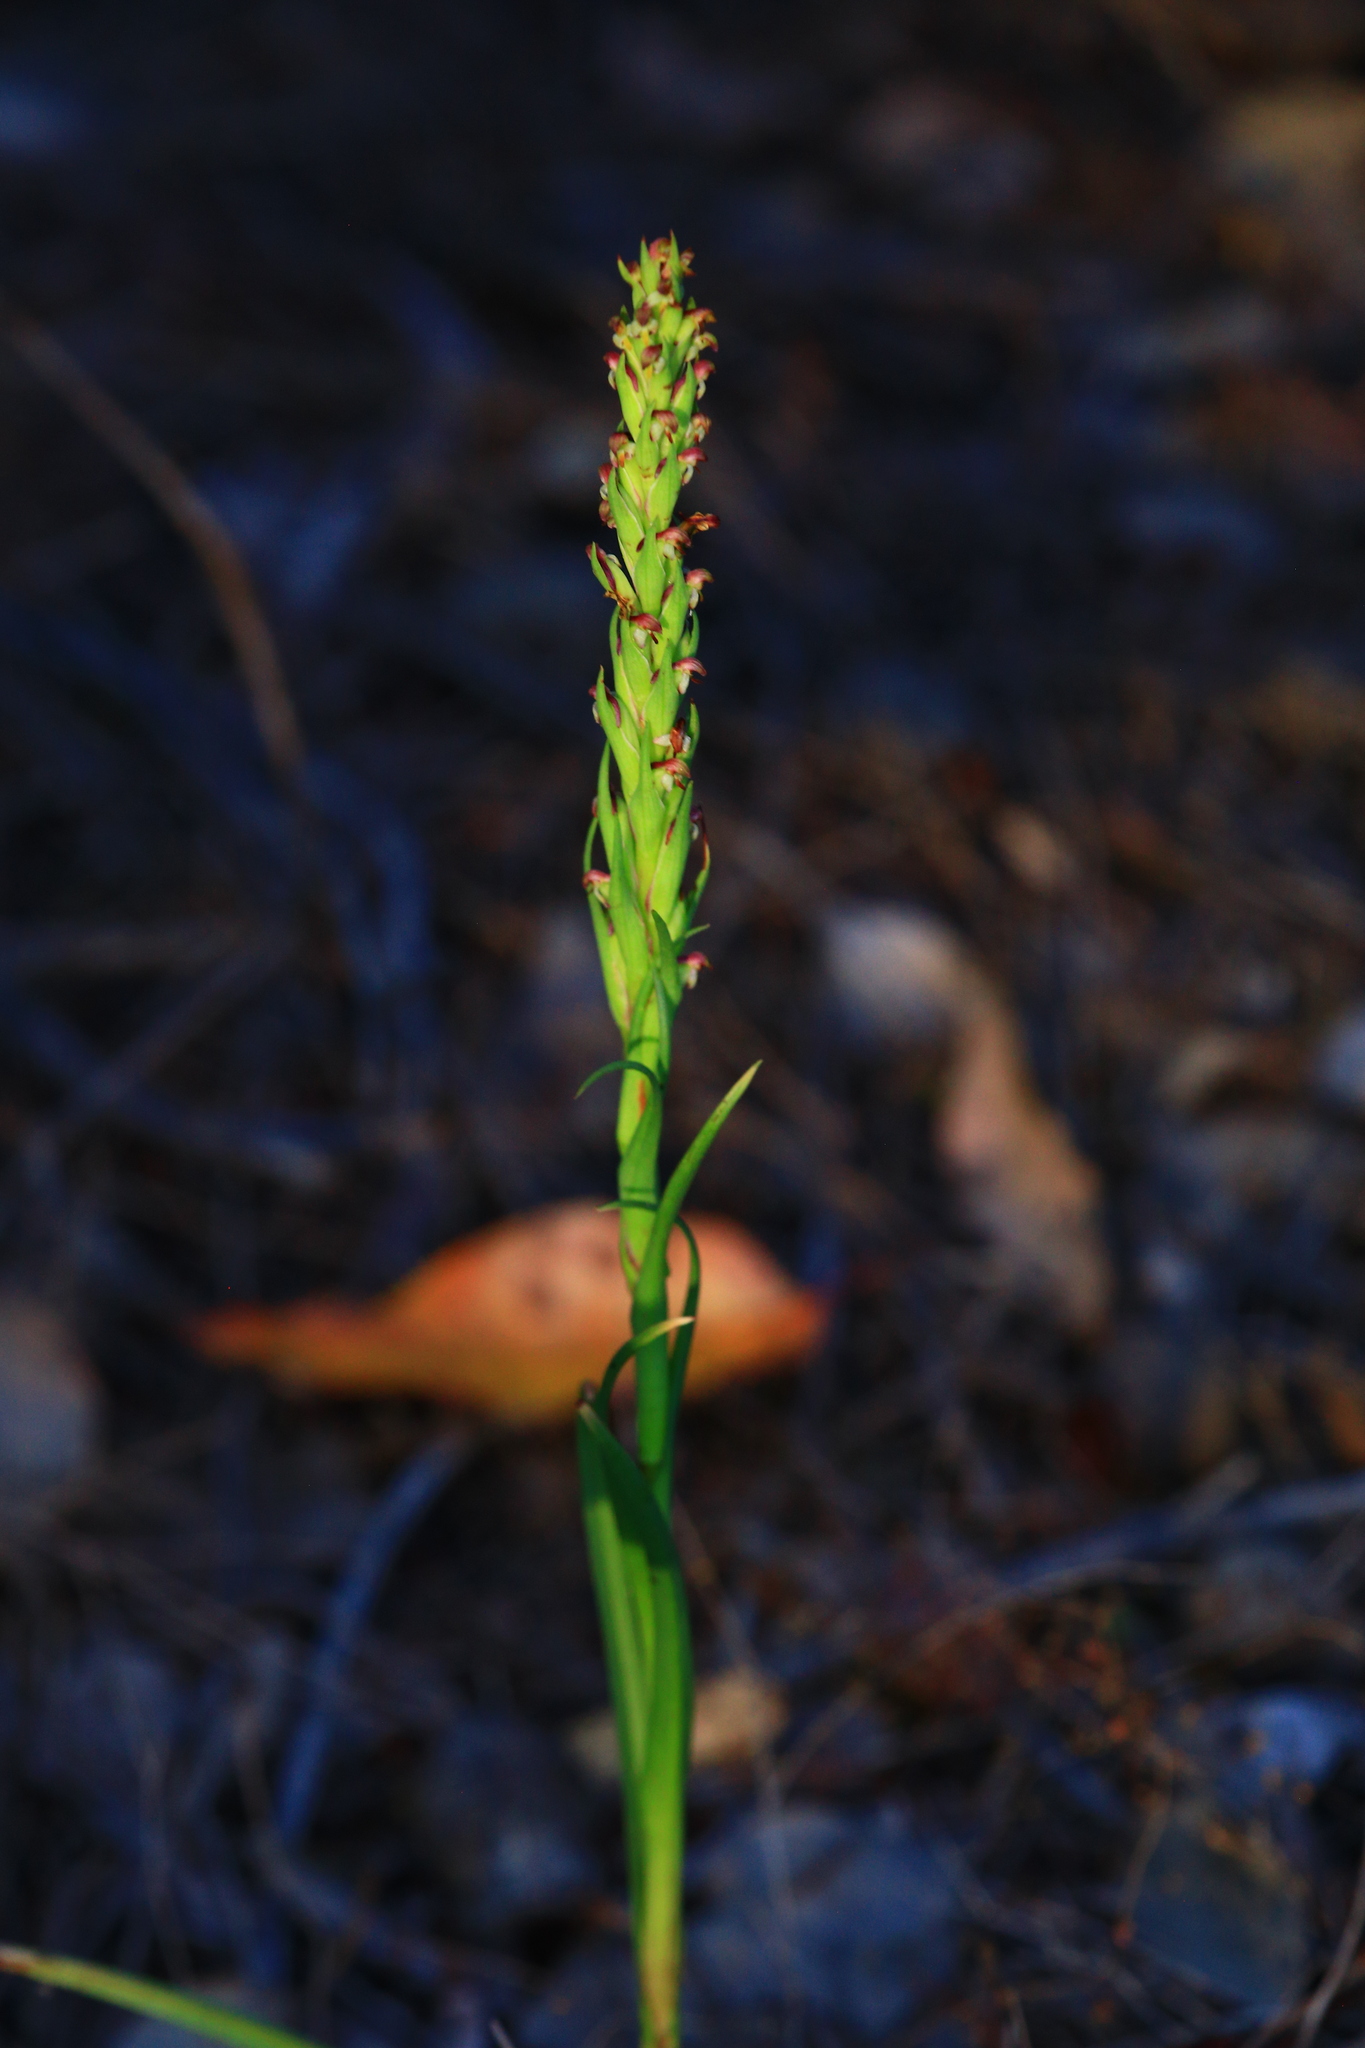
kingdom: Plantae
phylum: Tracheophyta
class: Liliopsida
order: Asparagales
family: Orchidaceae
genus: Disa
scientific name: Disa bracteata
